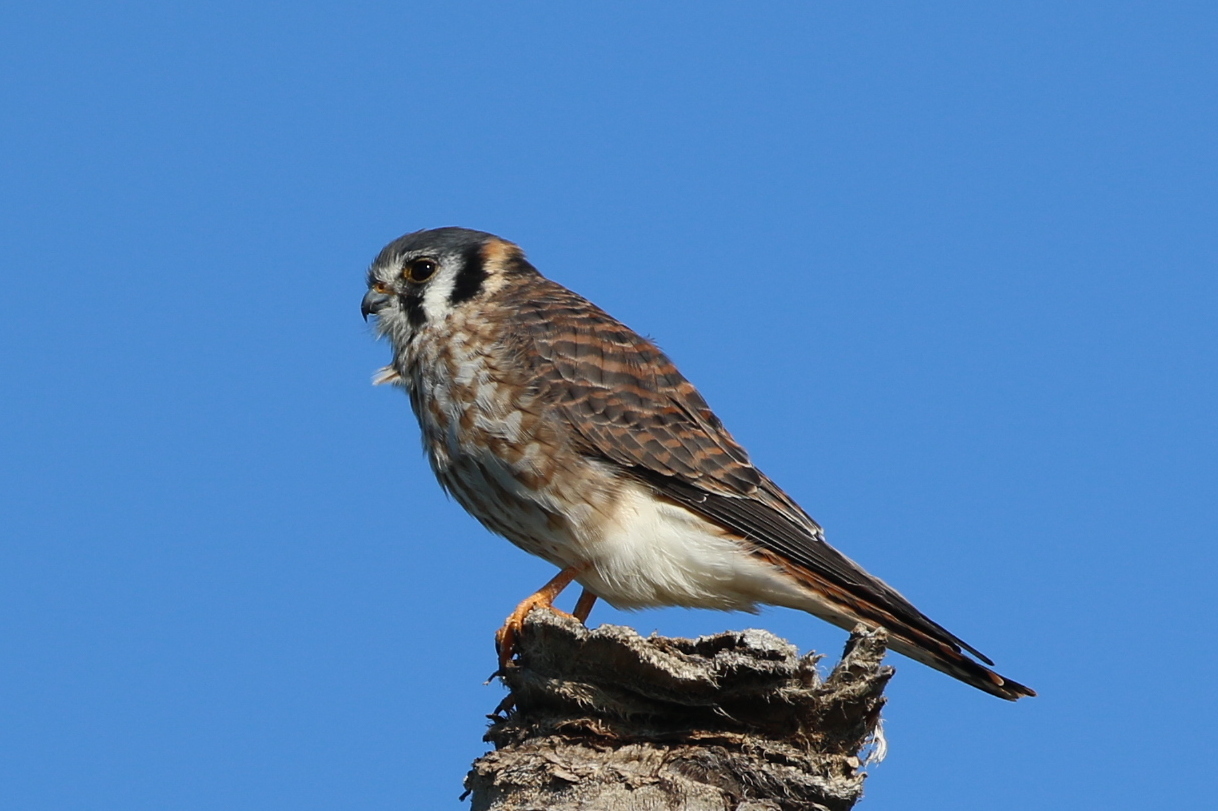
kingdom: Animalia
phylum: Chordata
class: Aves
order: Falconiformes
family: Falconidae
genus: Falco
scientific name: Falco sparverius
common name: American kestrel
